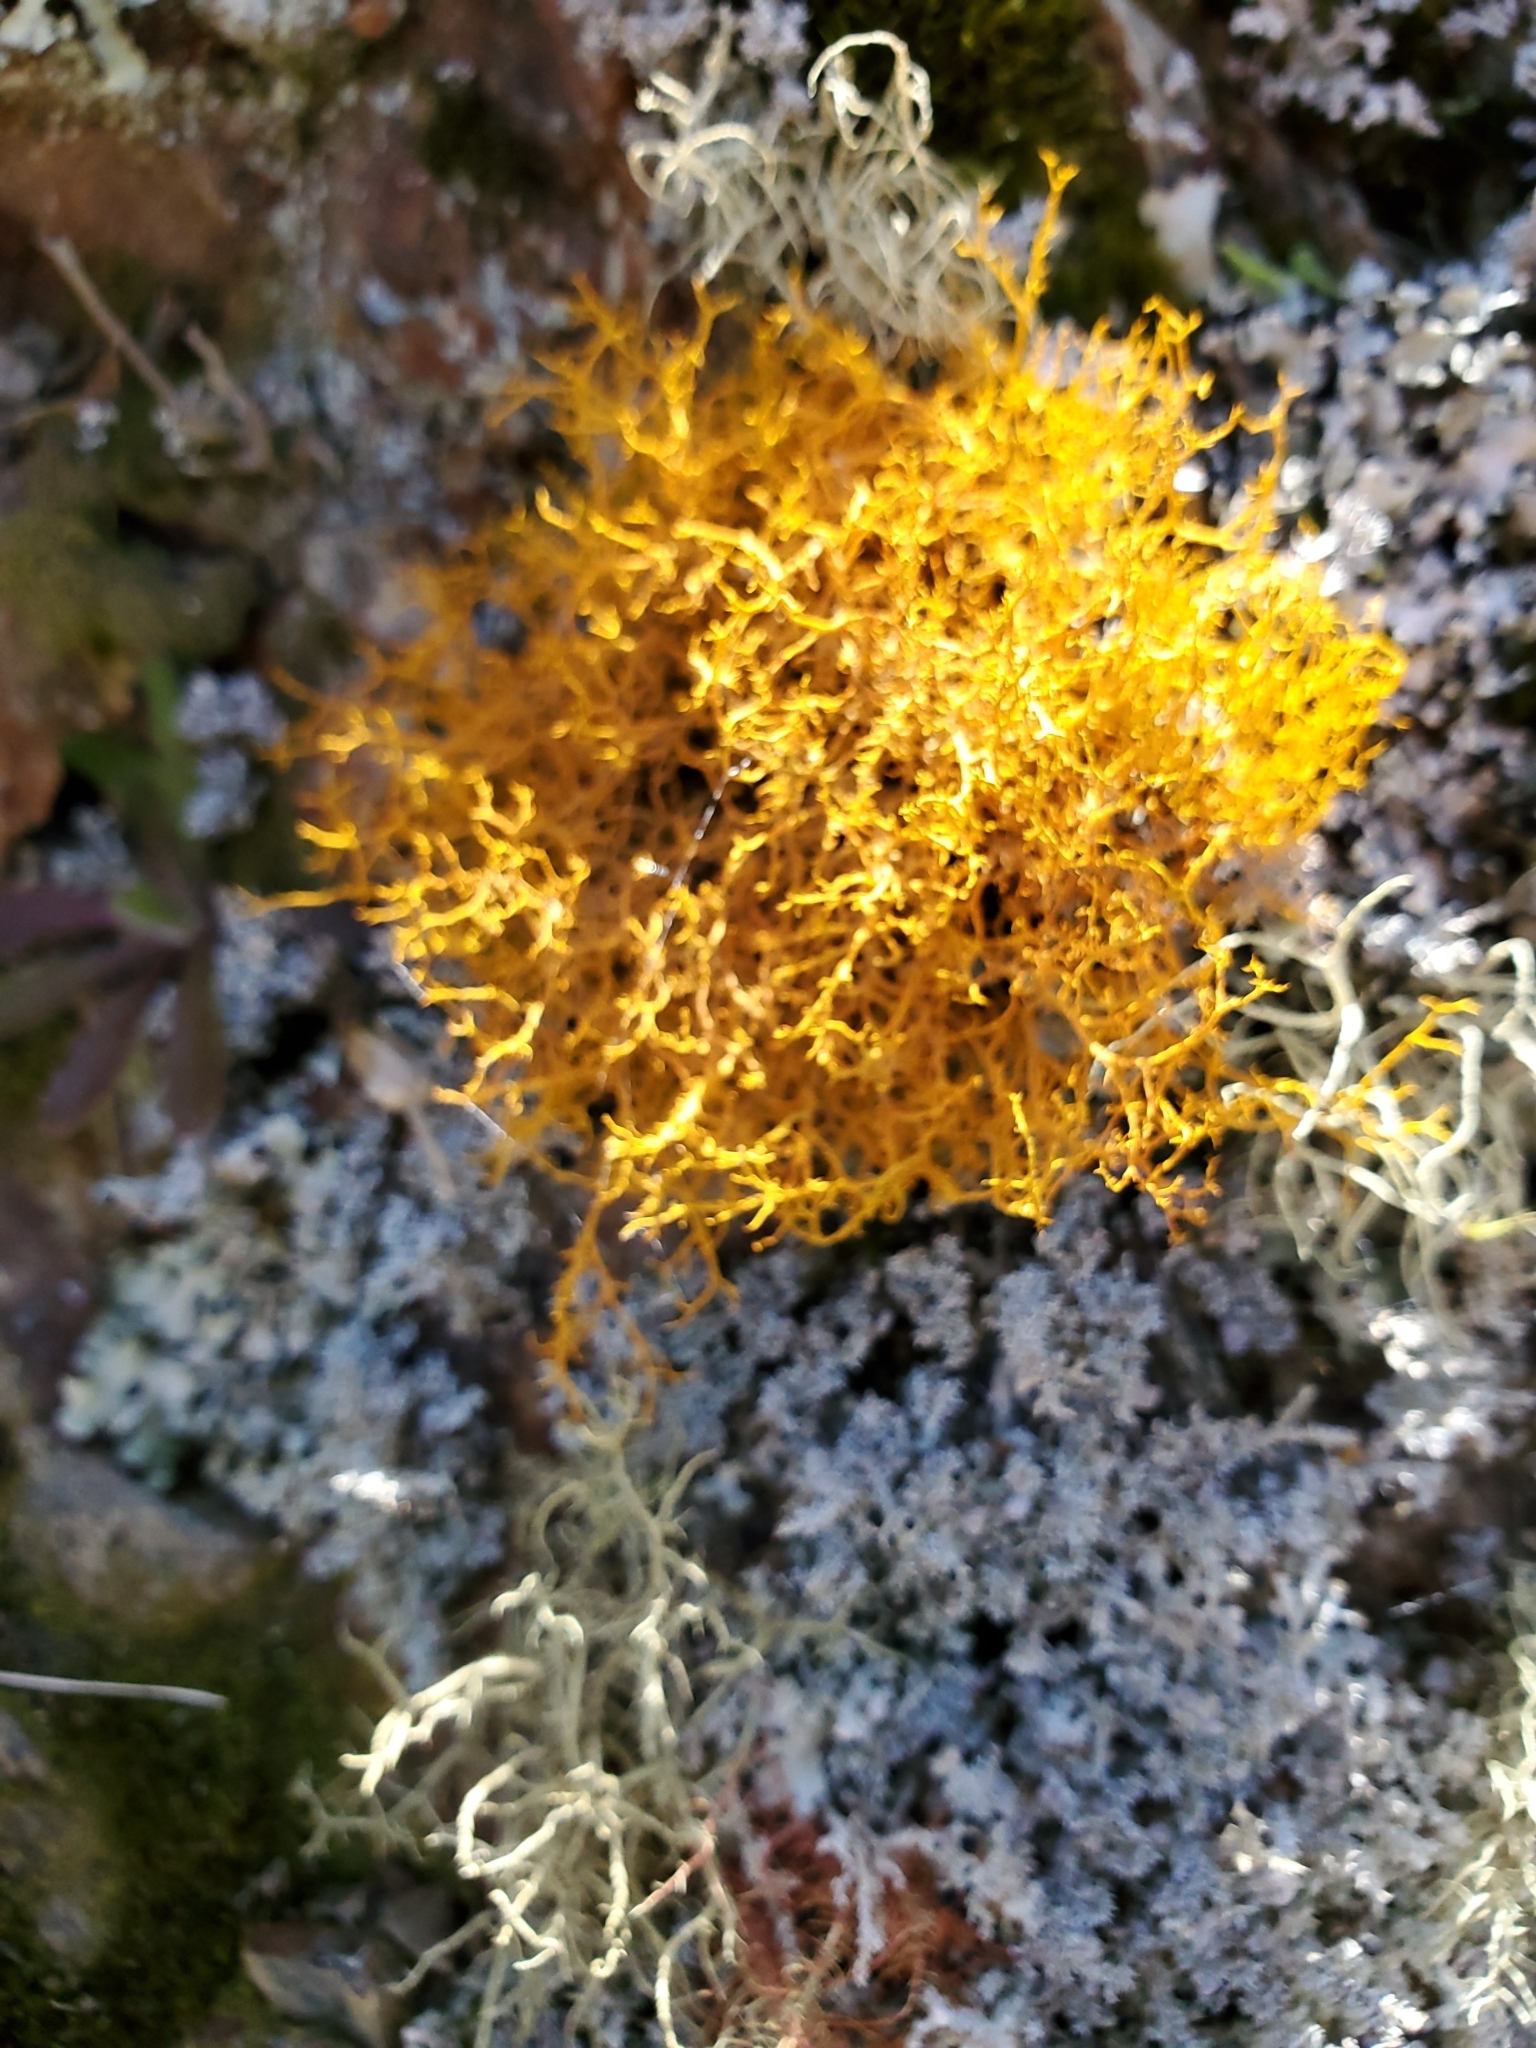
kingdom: Fungi
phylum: Ascomycota
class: Lecanoromycetes
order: Teloschistales
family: Teloschistaceae
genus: Teloschistes
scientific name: Teloschistes flavicans
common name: Golden hair-lichen
